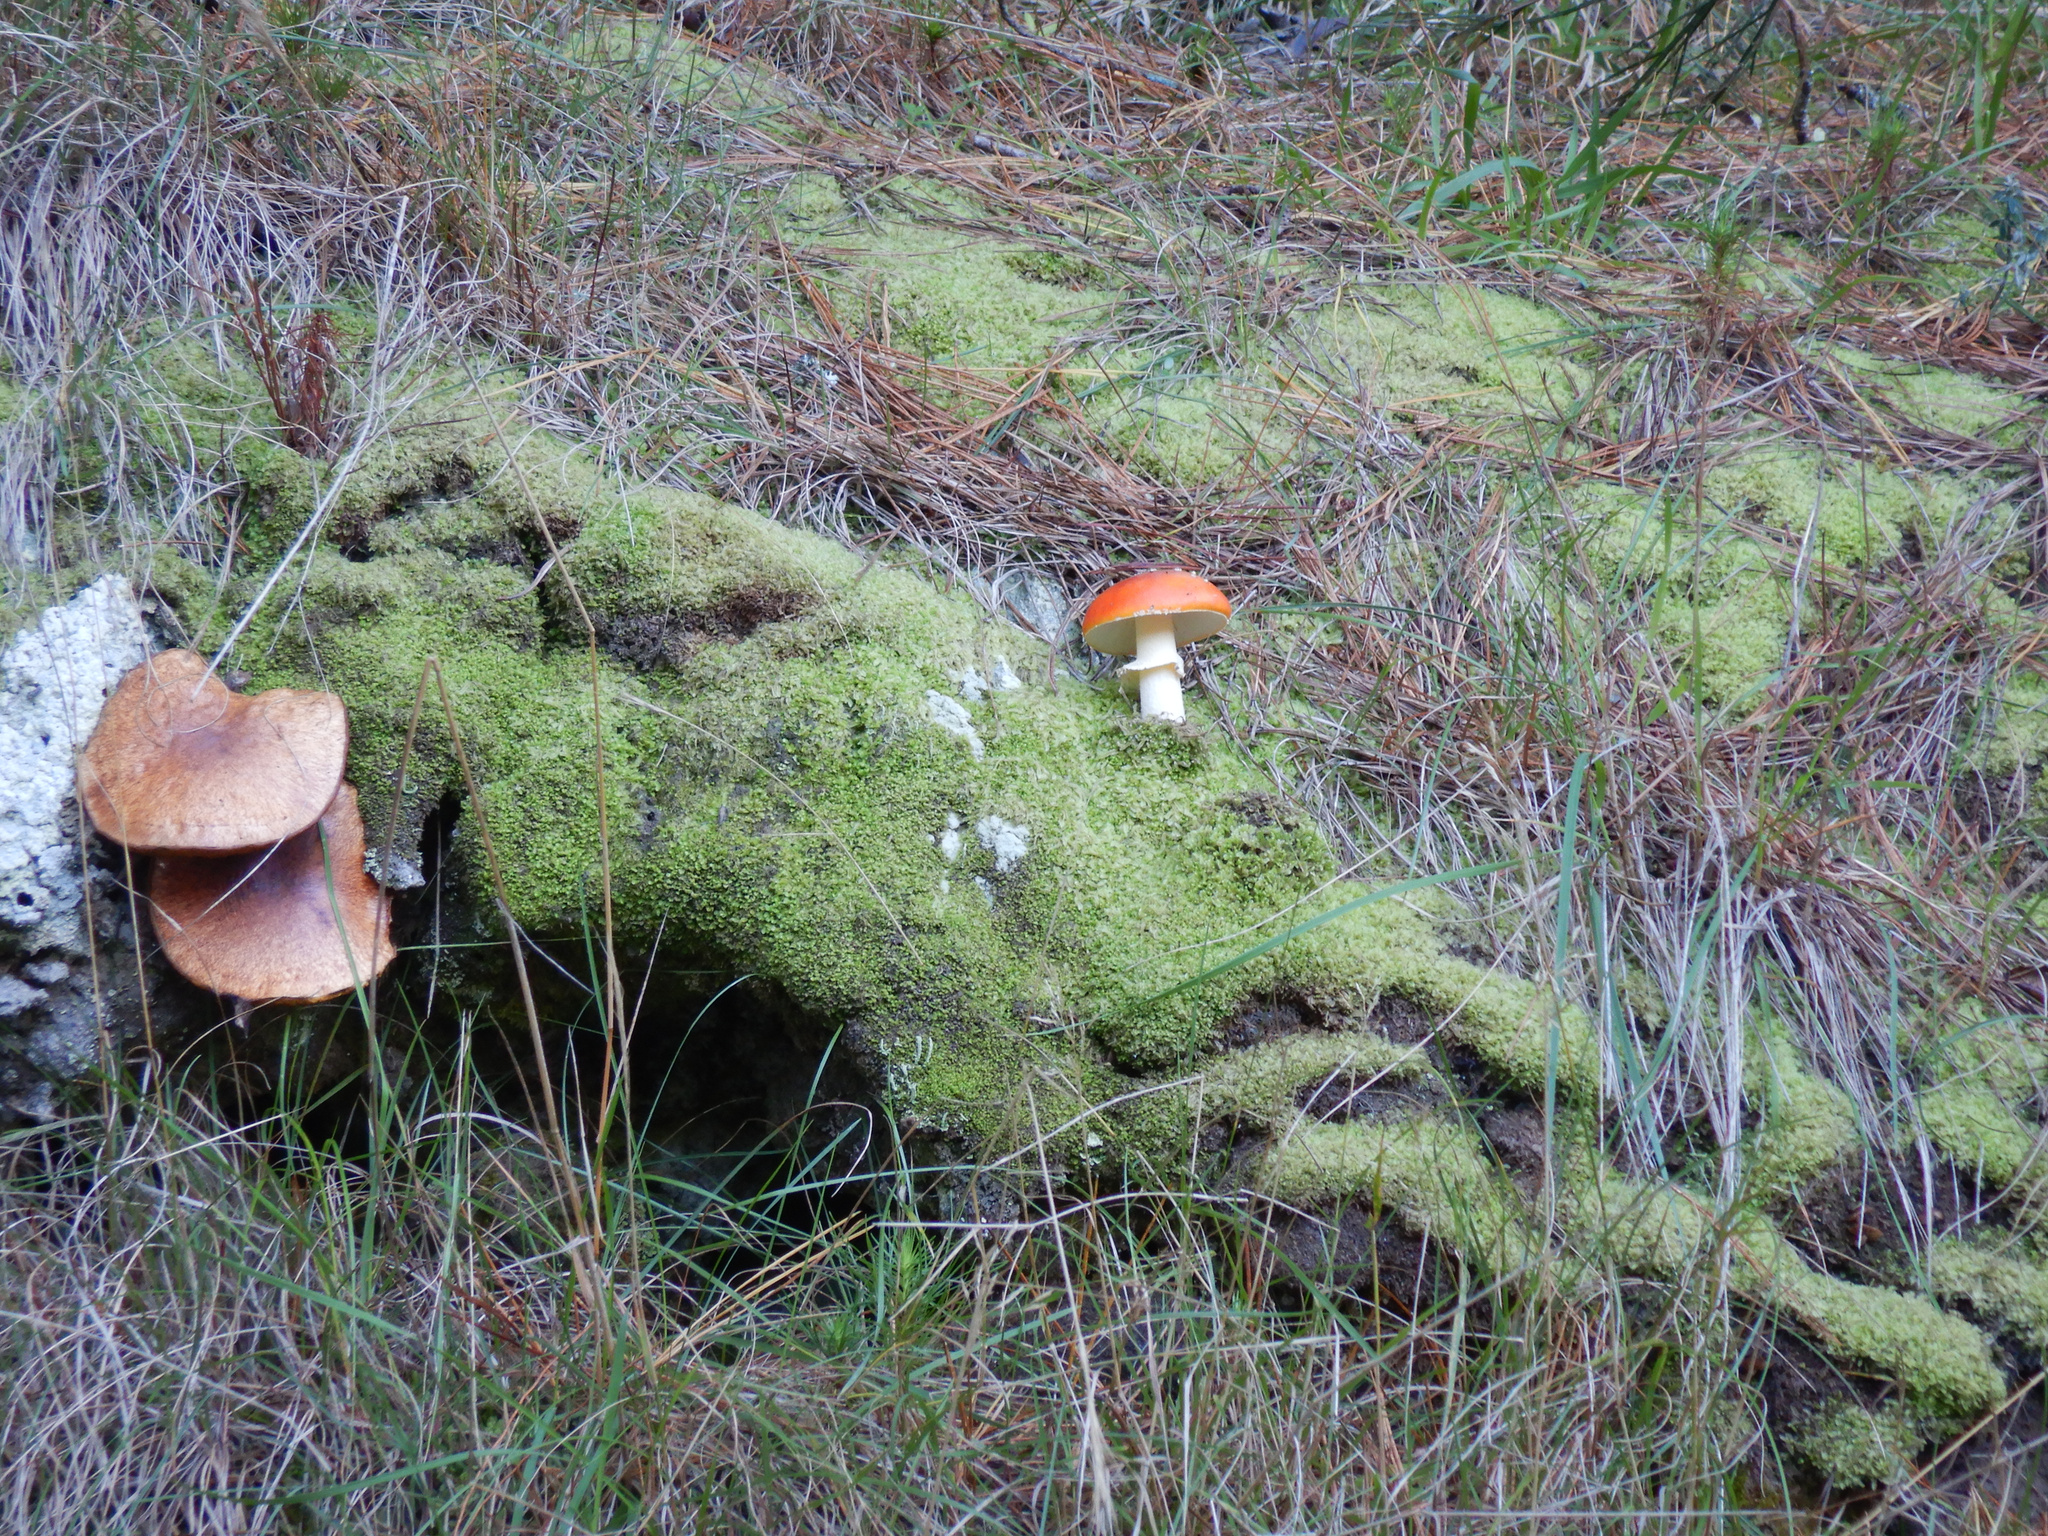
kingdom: Fungi
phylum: Basidiomycota
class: Agaricomycetes
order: Agaricales
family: Amanitaceae
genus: Amanita
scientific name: Amanita muscaria
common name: Fly agaric
